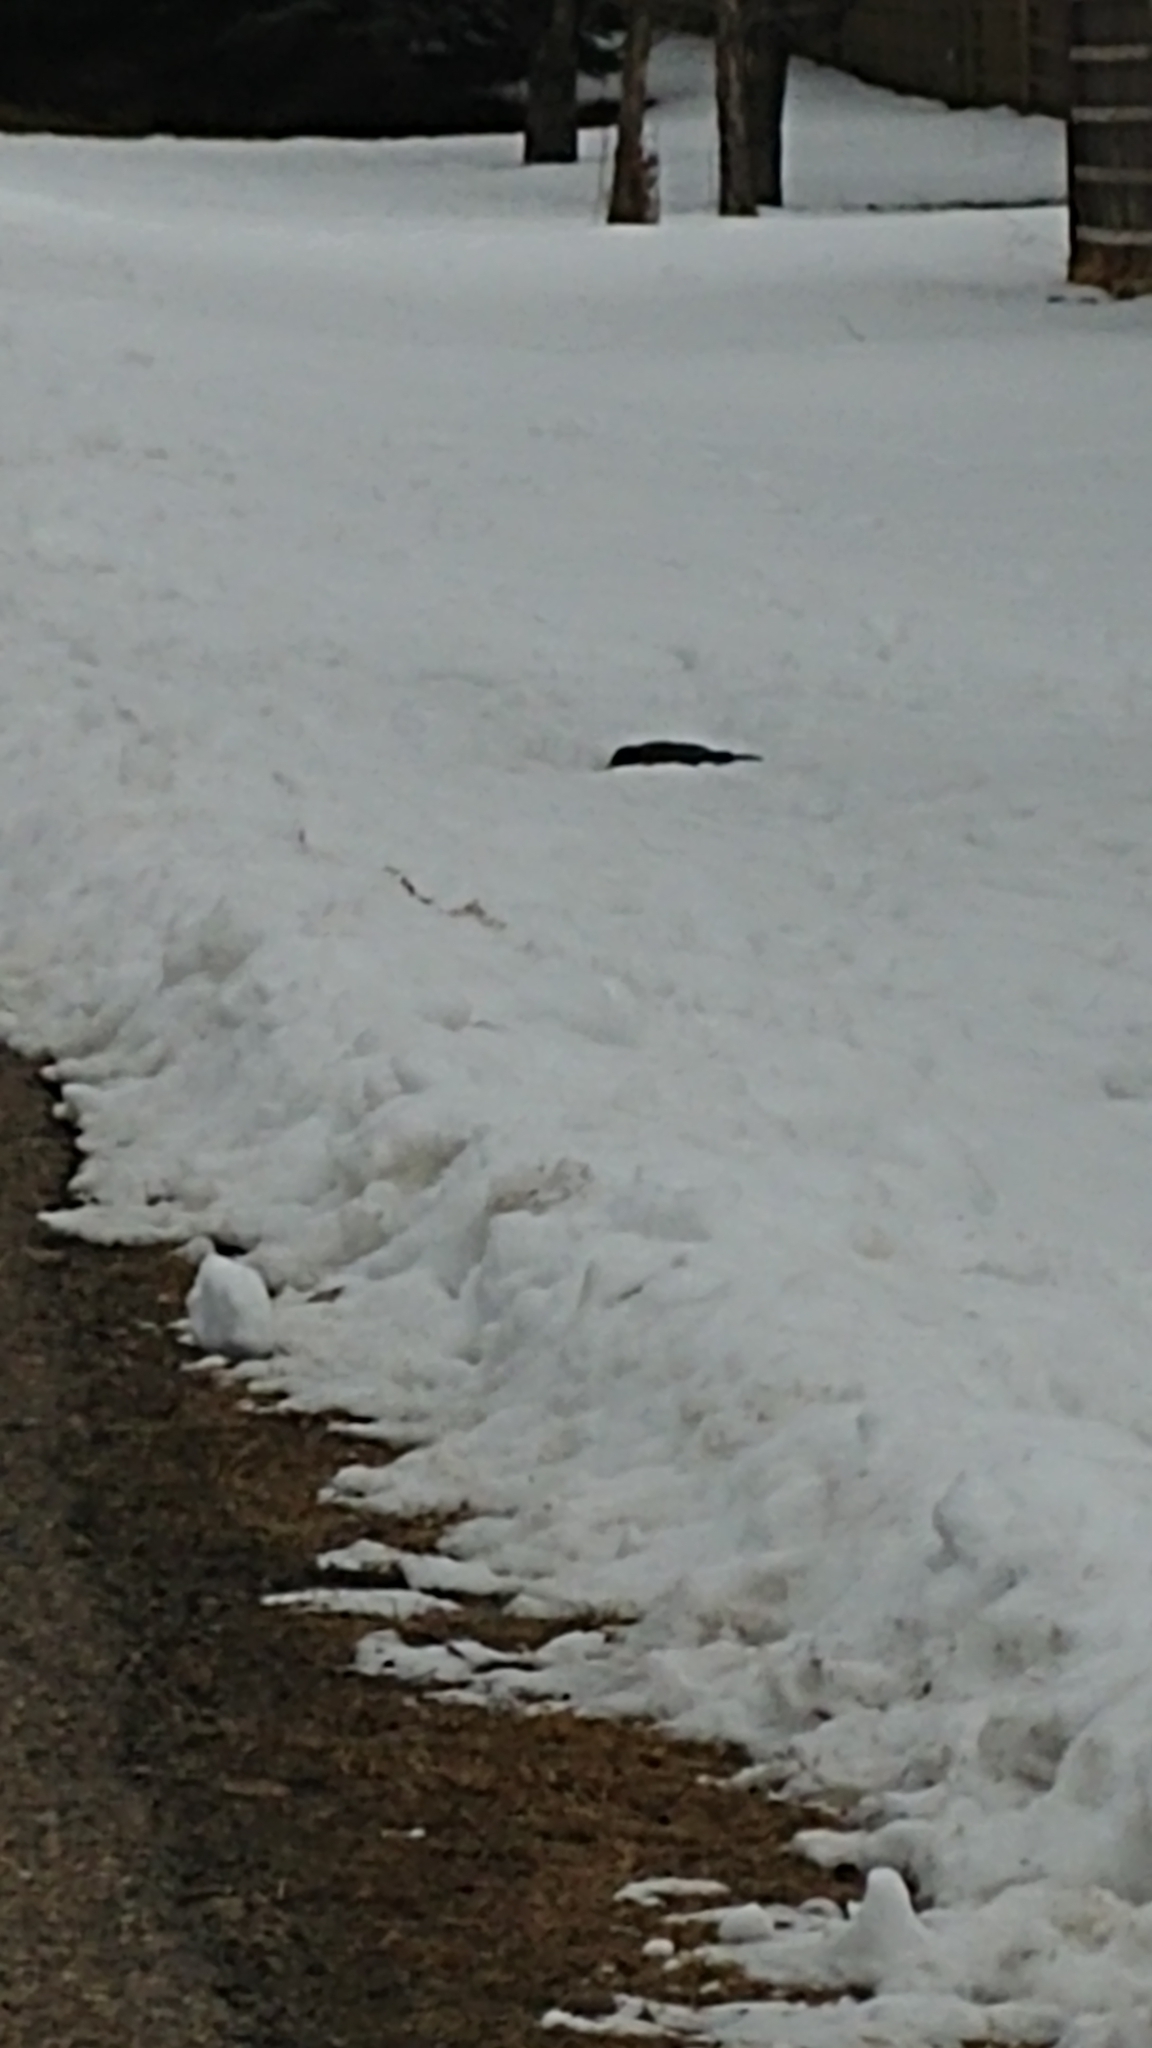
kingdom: Animalia
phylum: Chordata
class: Aves
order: Passeriformes
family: Turdidae
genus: Turdus
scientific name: Turdus migratorius
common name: American robin
